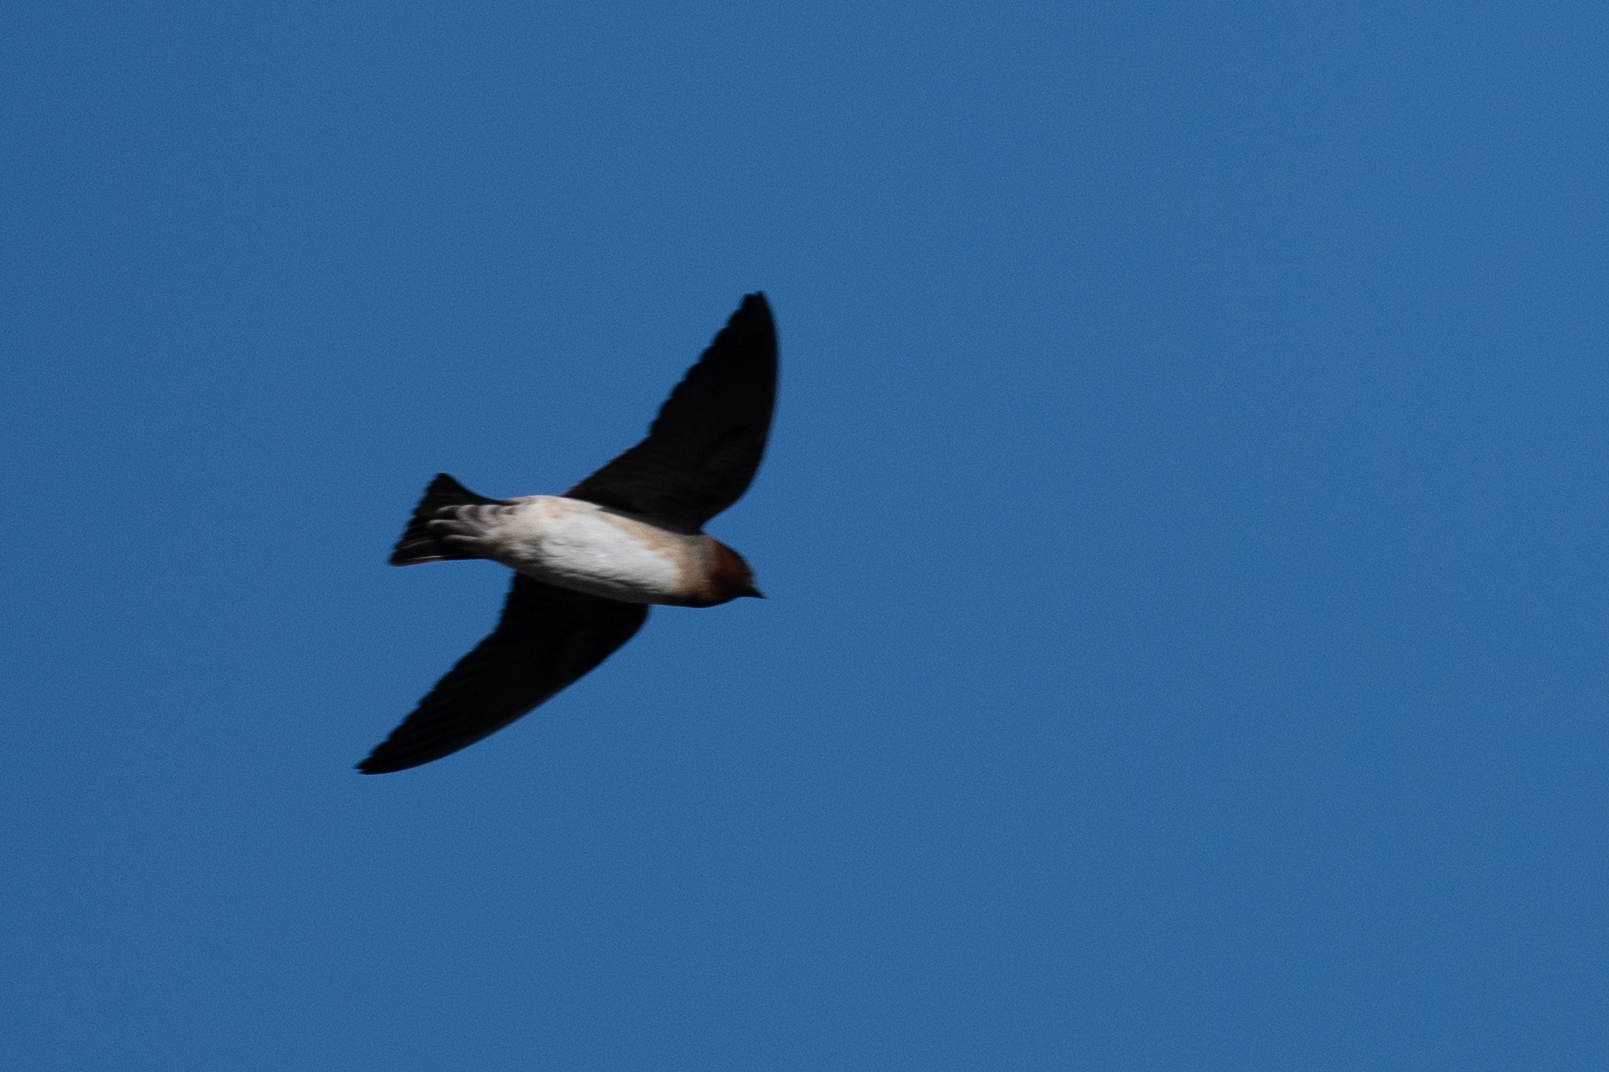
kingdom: Animalia
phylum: Chordata
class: Aves
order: Passeriformes
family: Hirundinidae
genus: Petrochelidon
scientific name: Petrochelidon pyrrhonota
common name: American cliff swallow
